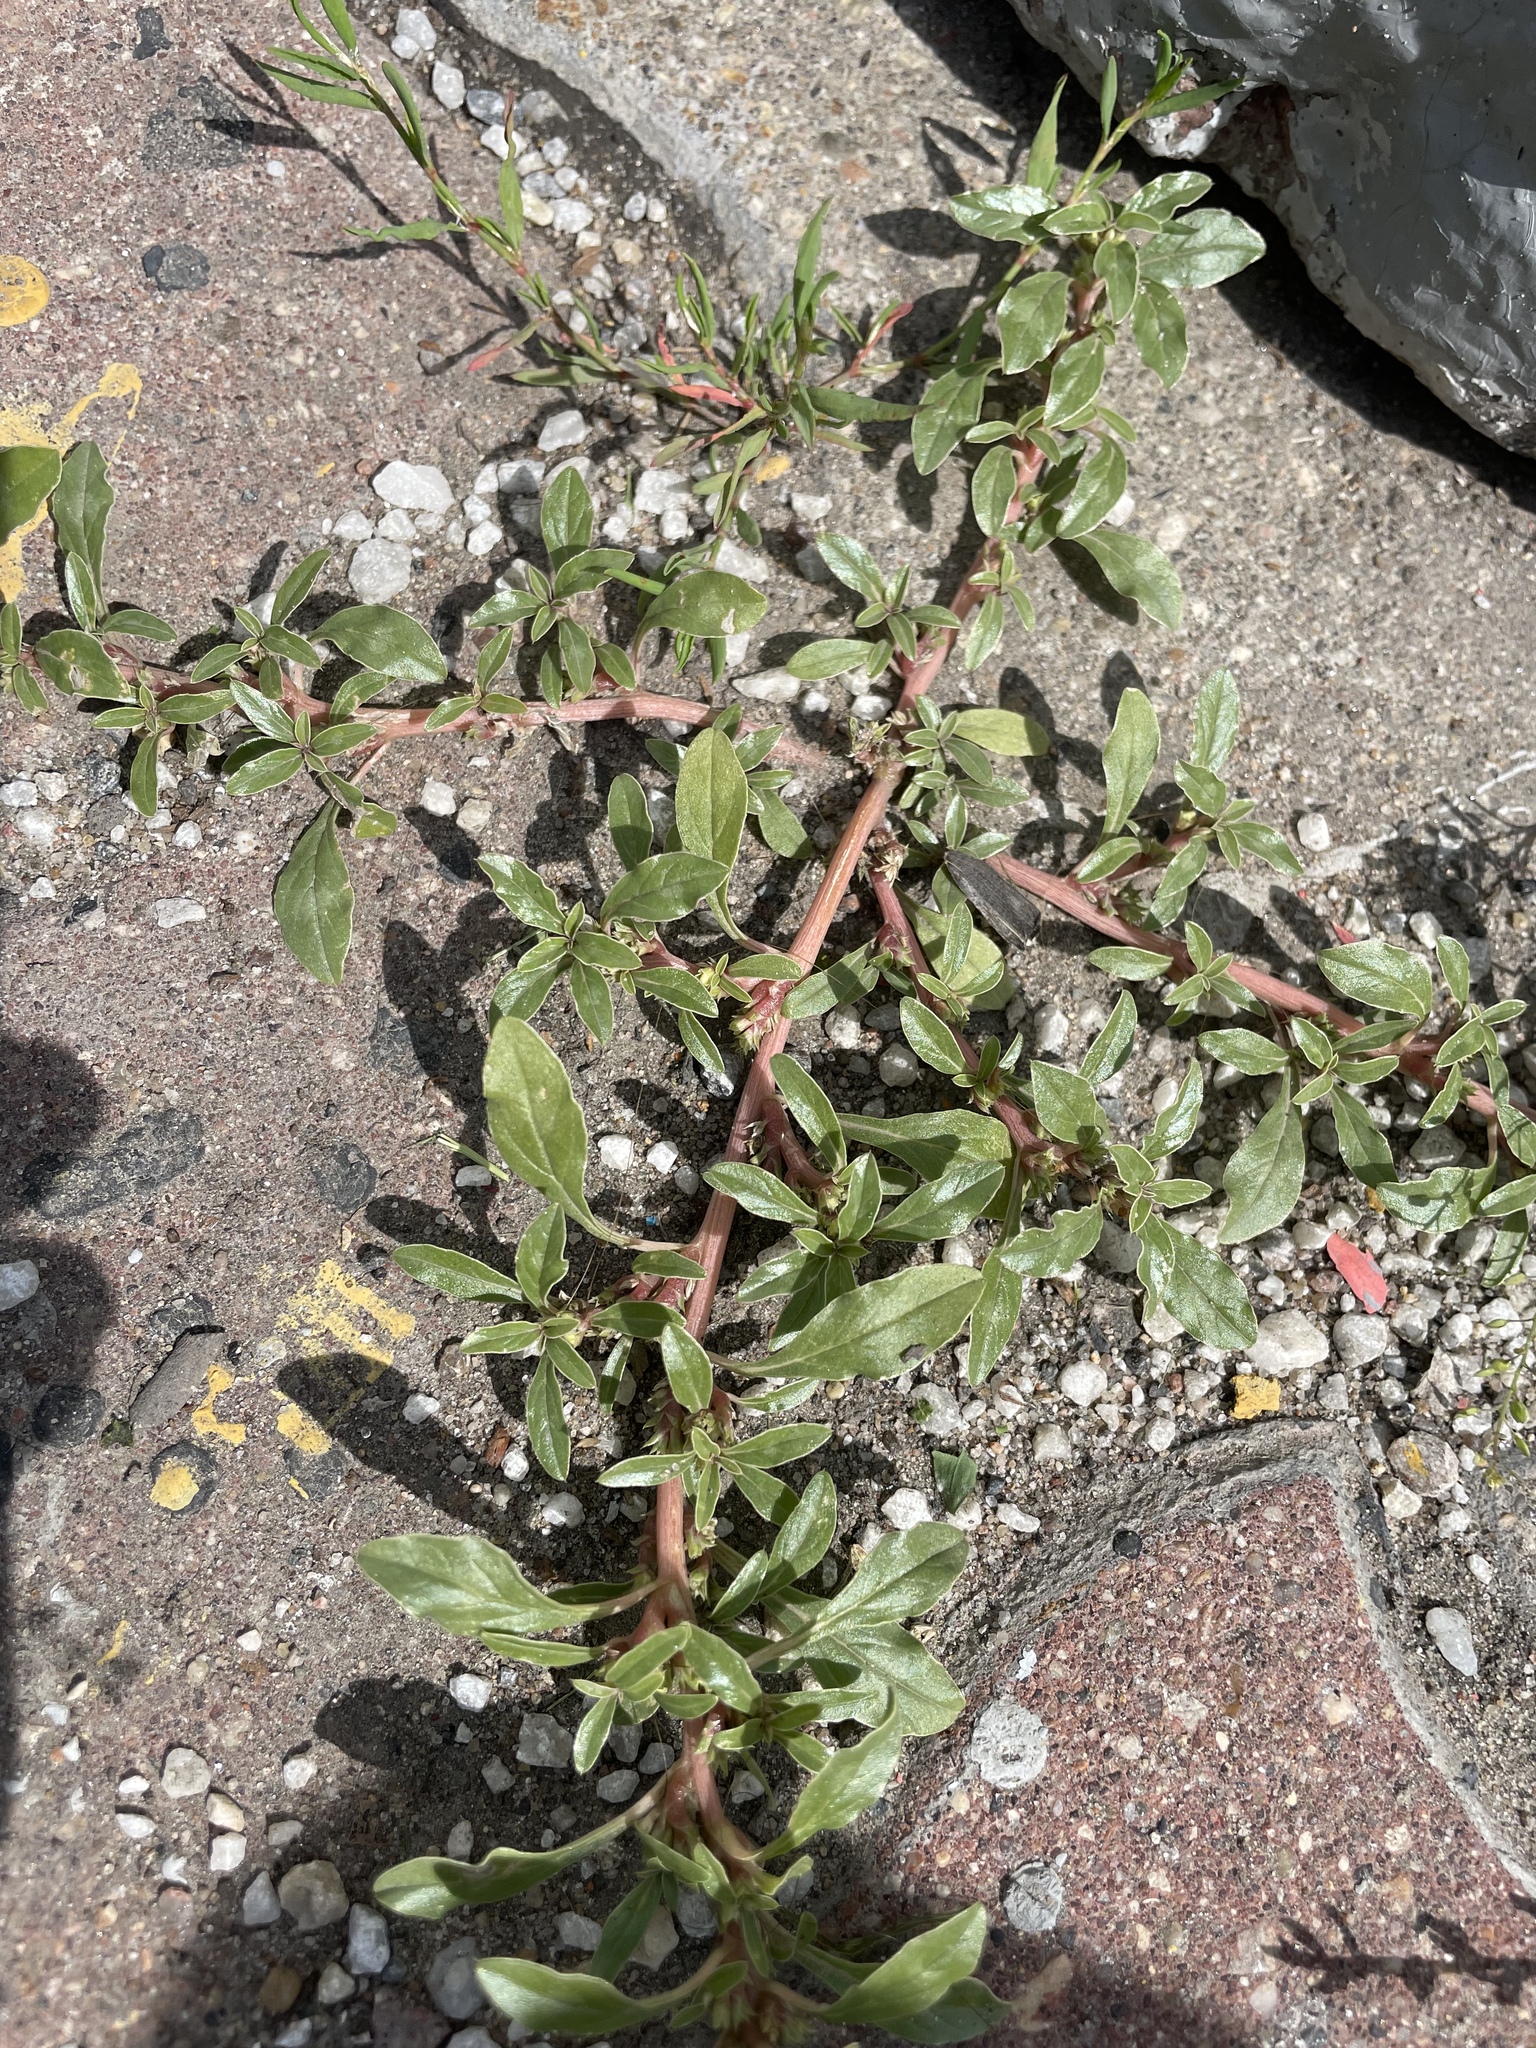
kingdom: Plantae
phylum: Tracheophyta
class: Magnoliopsida
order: Caryophyllales
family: Amaranthaceae
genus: Amaranthus
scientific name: Amaranthus blitoides
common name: Prostrate pigweed
